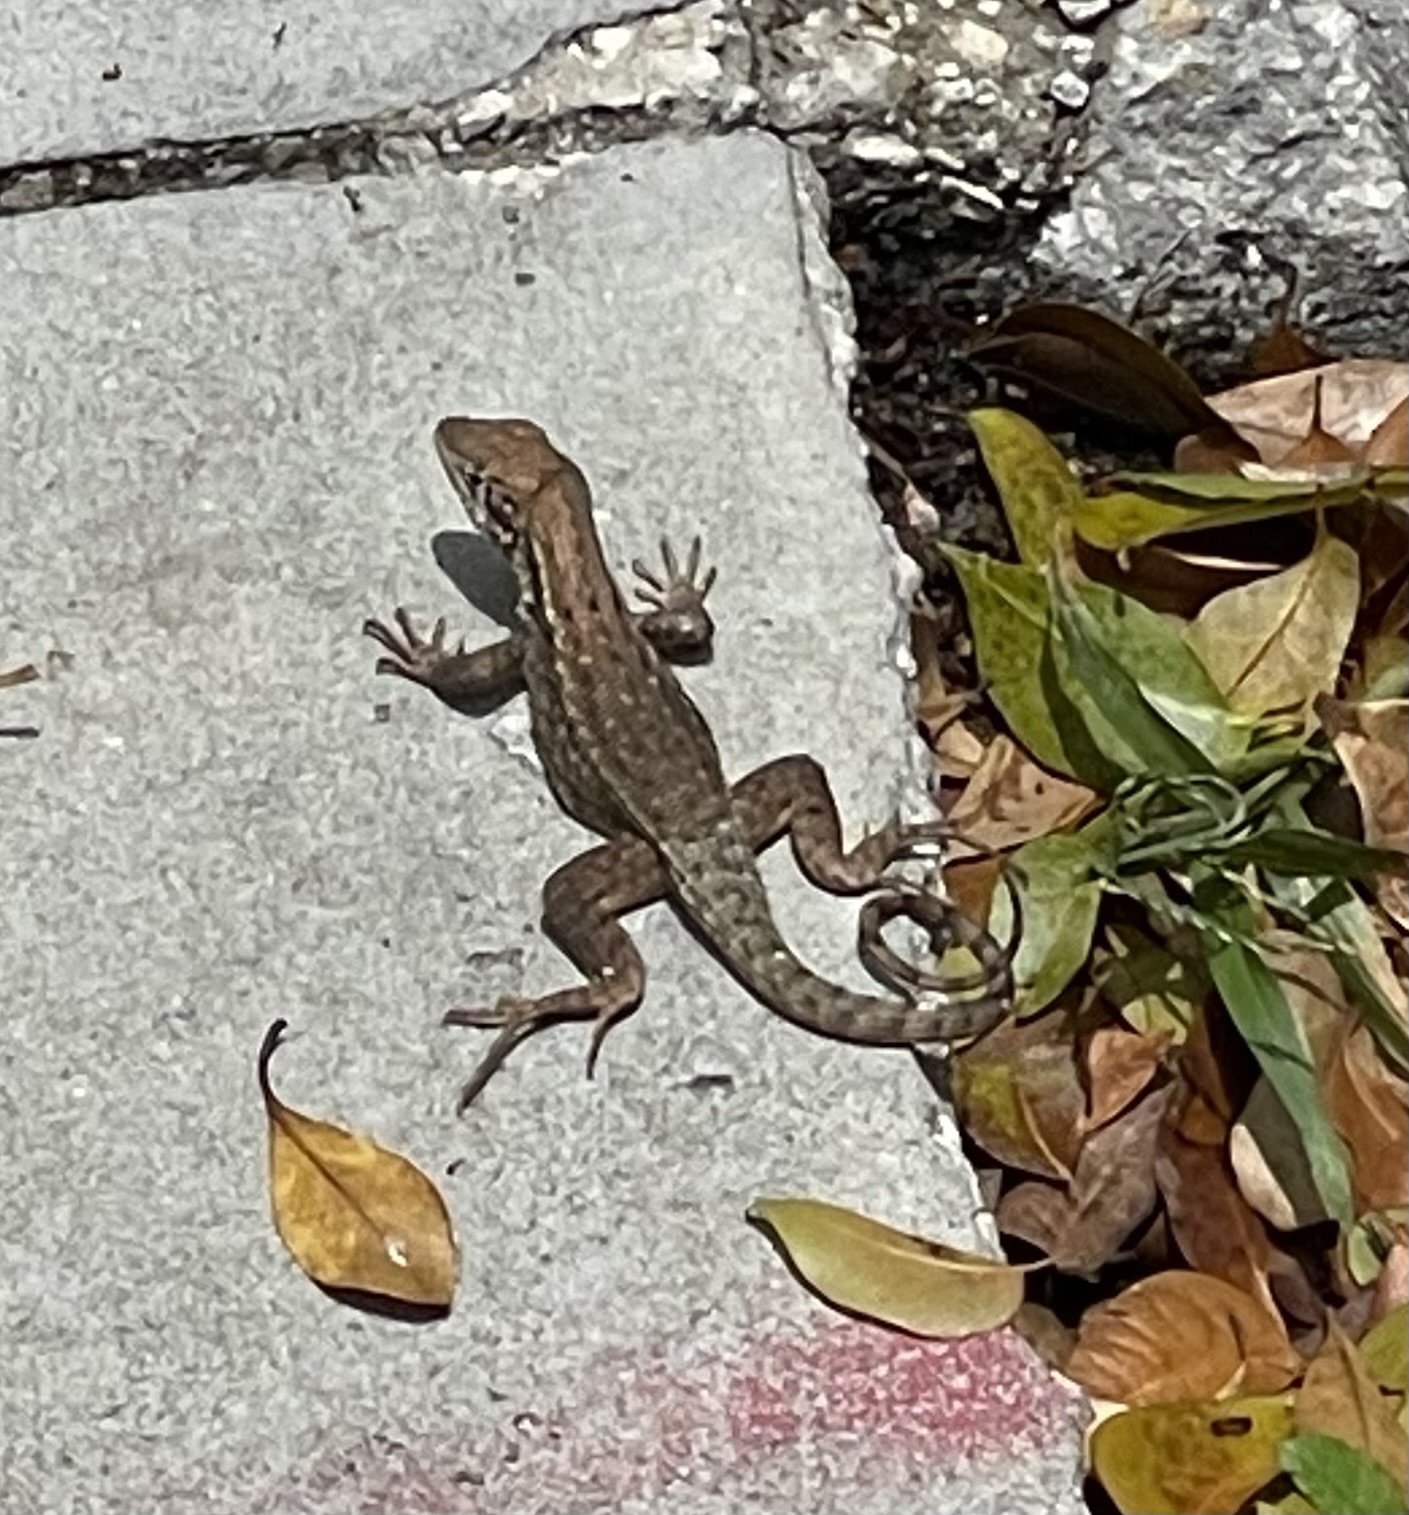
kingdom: Animalia
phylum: Chordata
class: Squamata
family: Leiocephalidae
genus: Leiocephalus
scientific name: Leiocephalus carinatus
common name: Northern curly-tailed lizard
